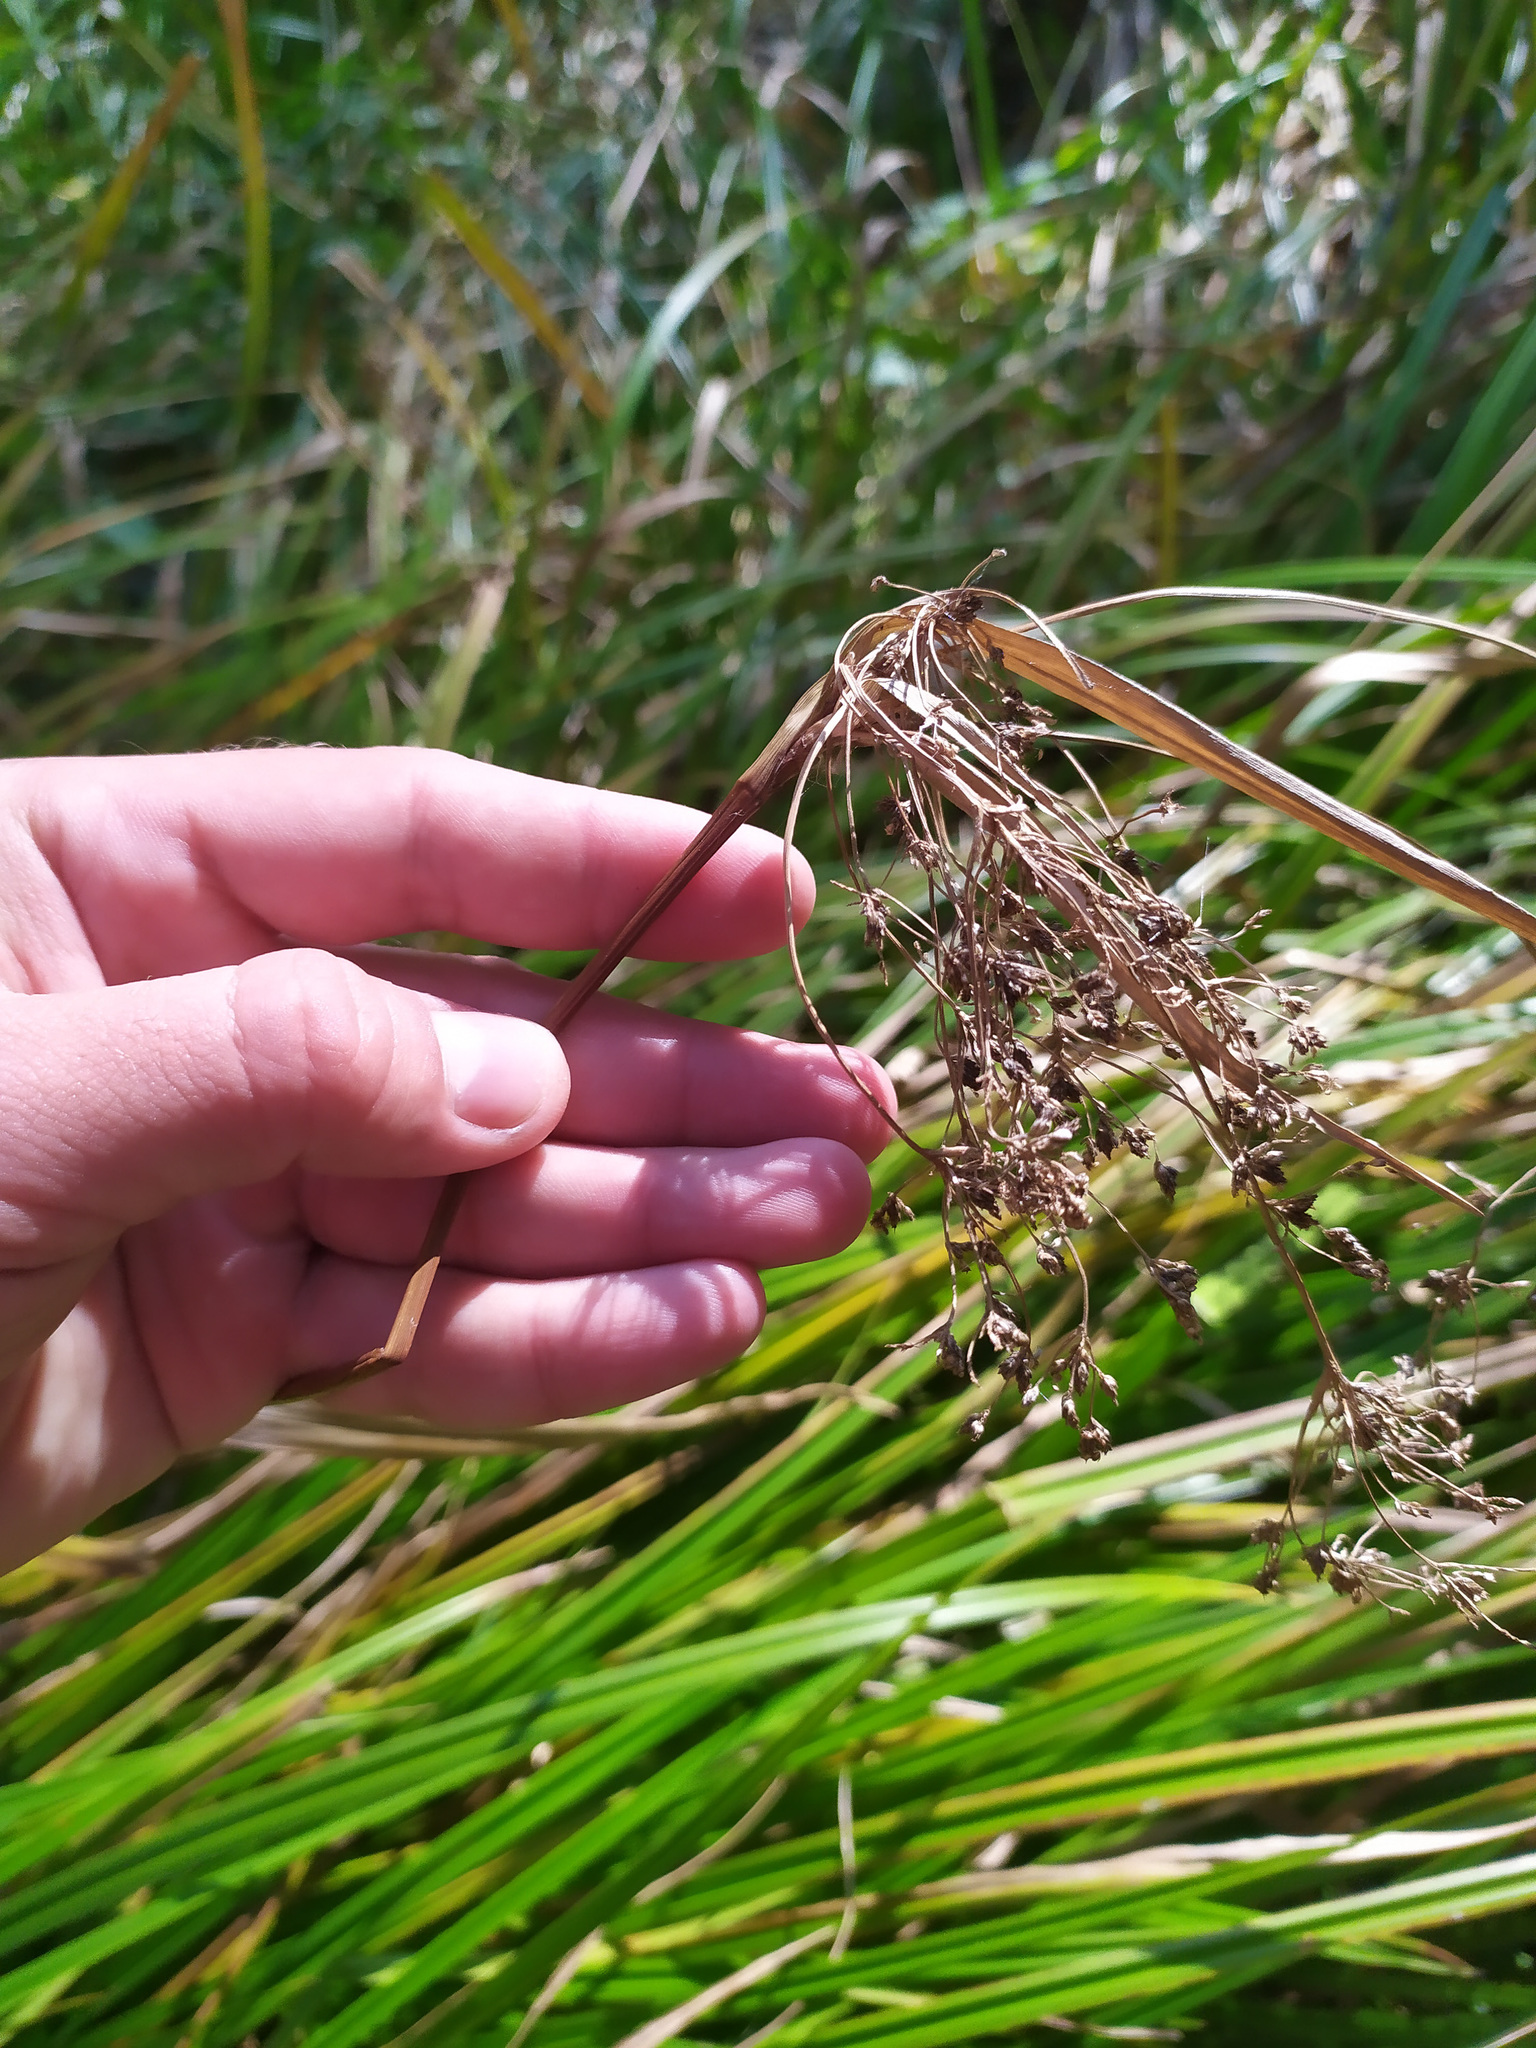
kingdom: Plantae
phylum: Tracheophyta
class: Liliopsida
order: Poales
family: Cyperaceae
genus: Scirpus
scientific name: Scirpus sylvaticus
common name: Wood club-rush
